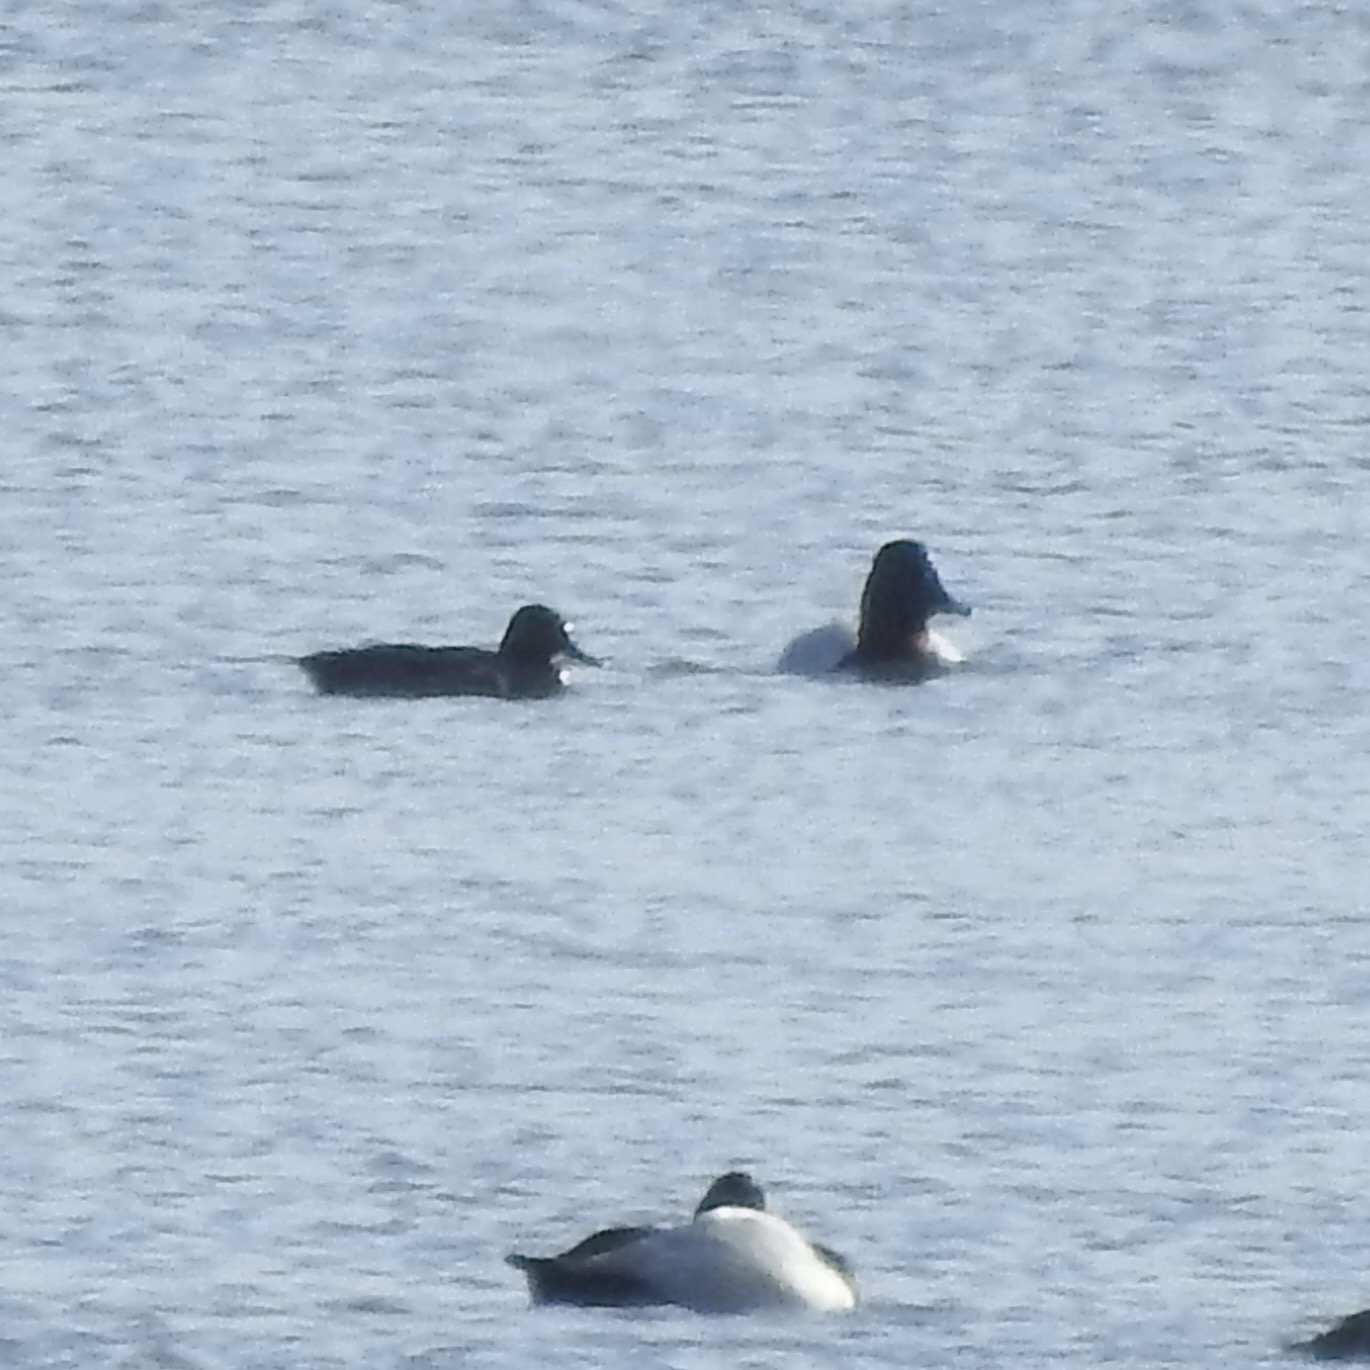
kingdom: Animalia
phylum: Chordata
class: Aves
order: Anseriformes
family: Anatidae
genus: Aythya
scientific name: Aythya valisineria
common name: Canvasback
